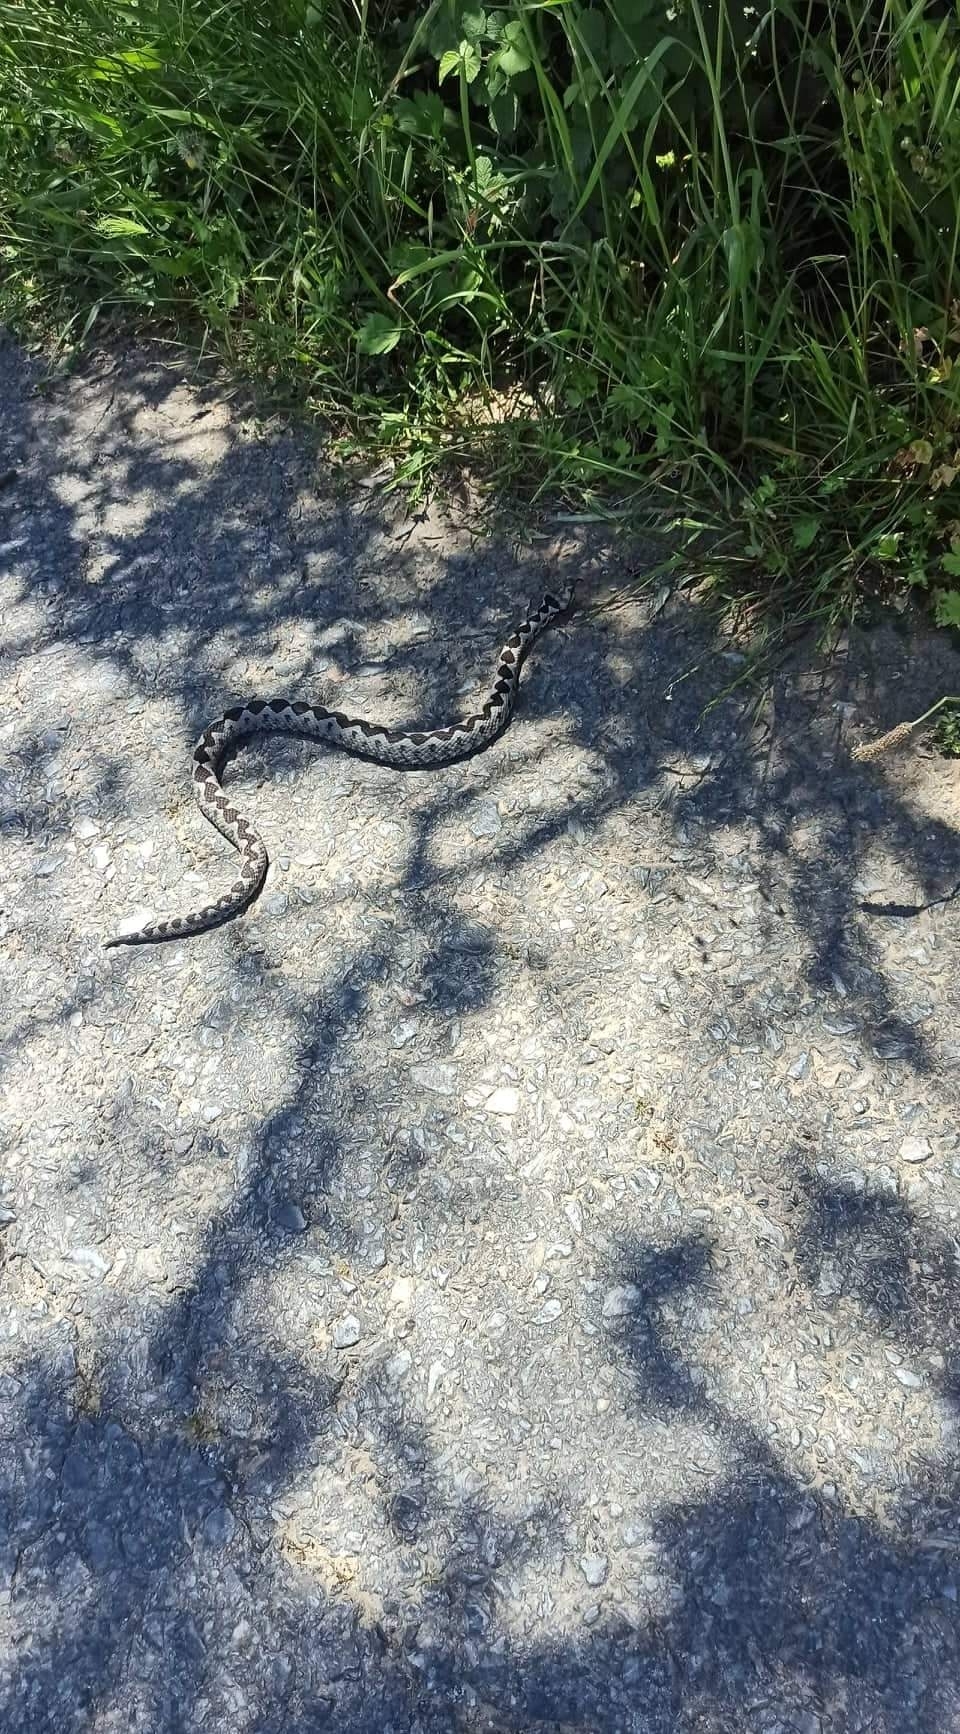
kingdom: Animalia
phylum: Chordata
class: Squamata
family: Viperidae
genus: Vipera
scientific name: Vipera ammodytes
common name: Sand viper
